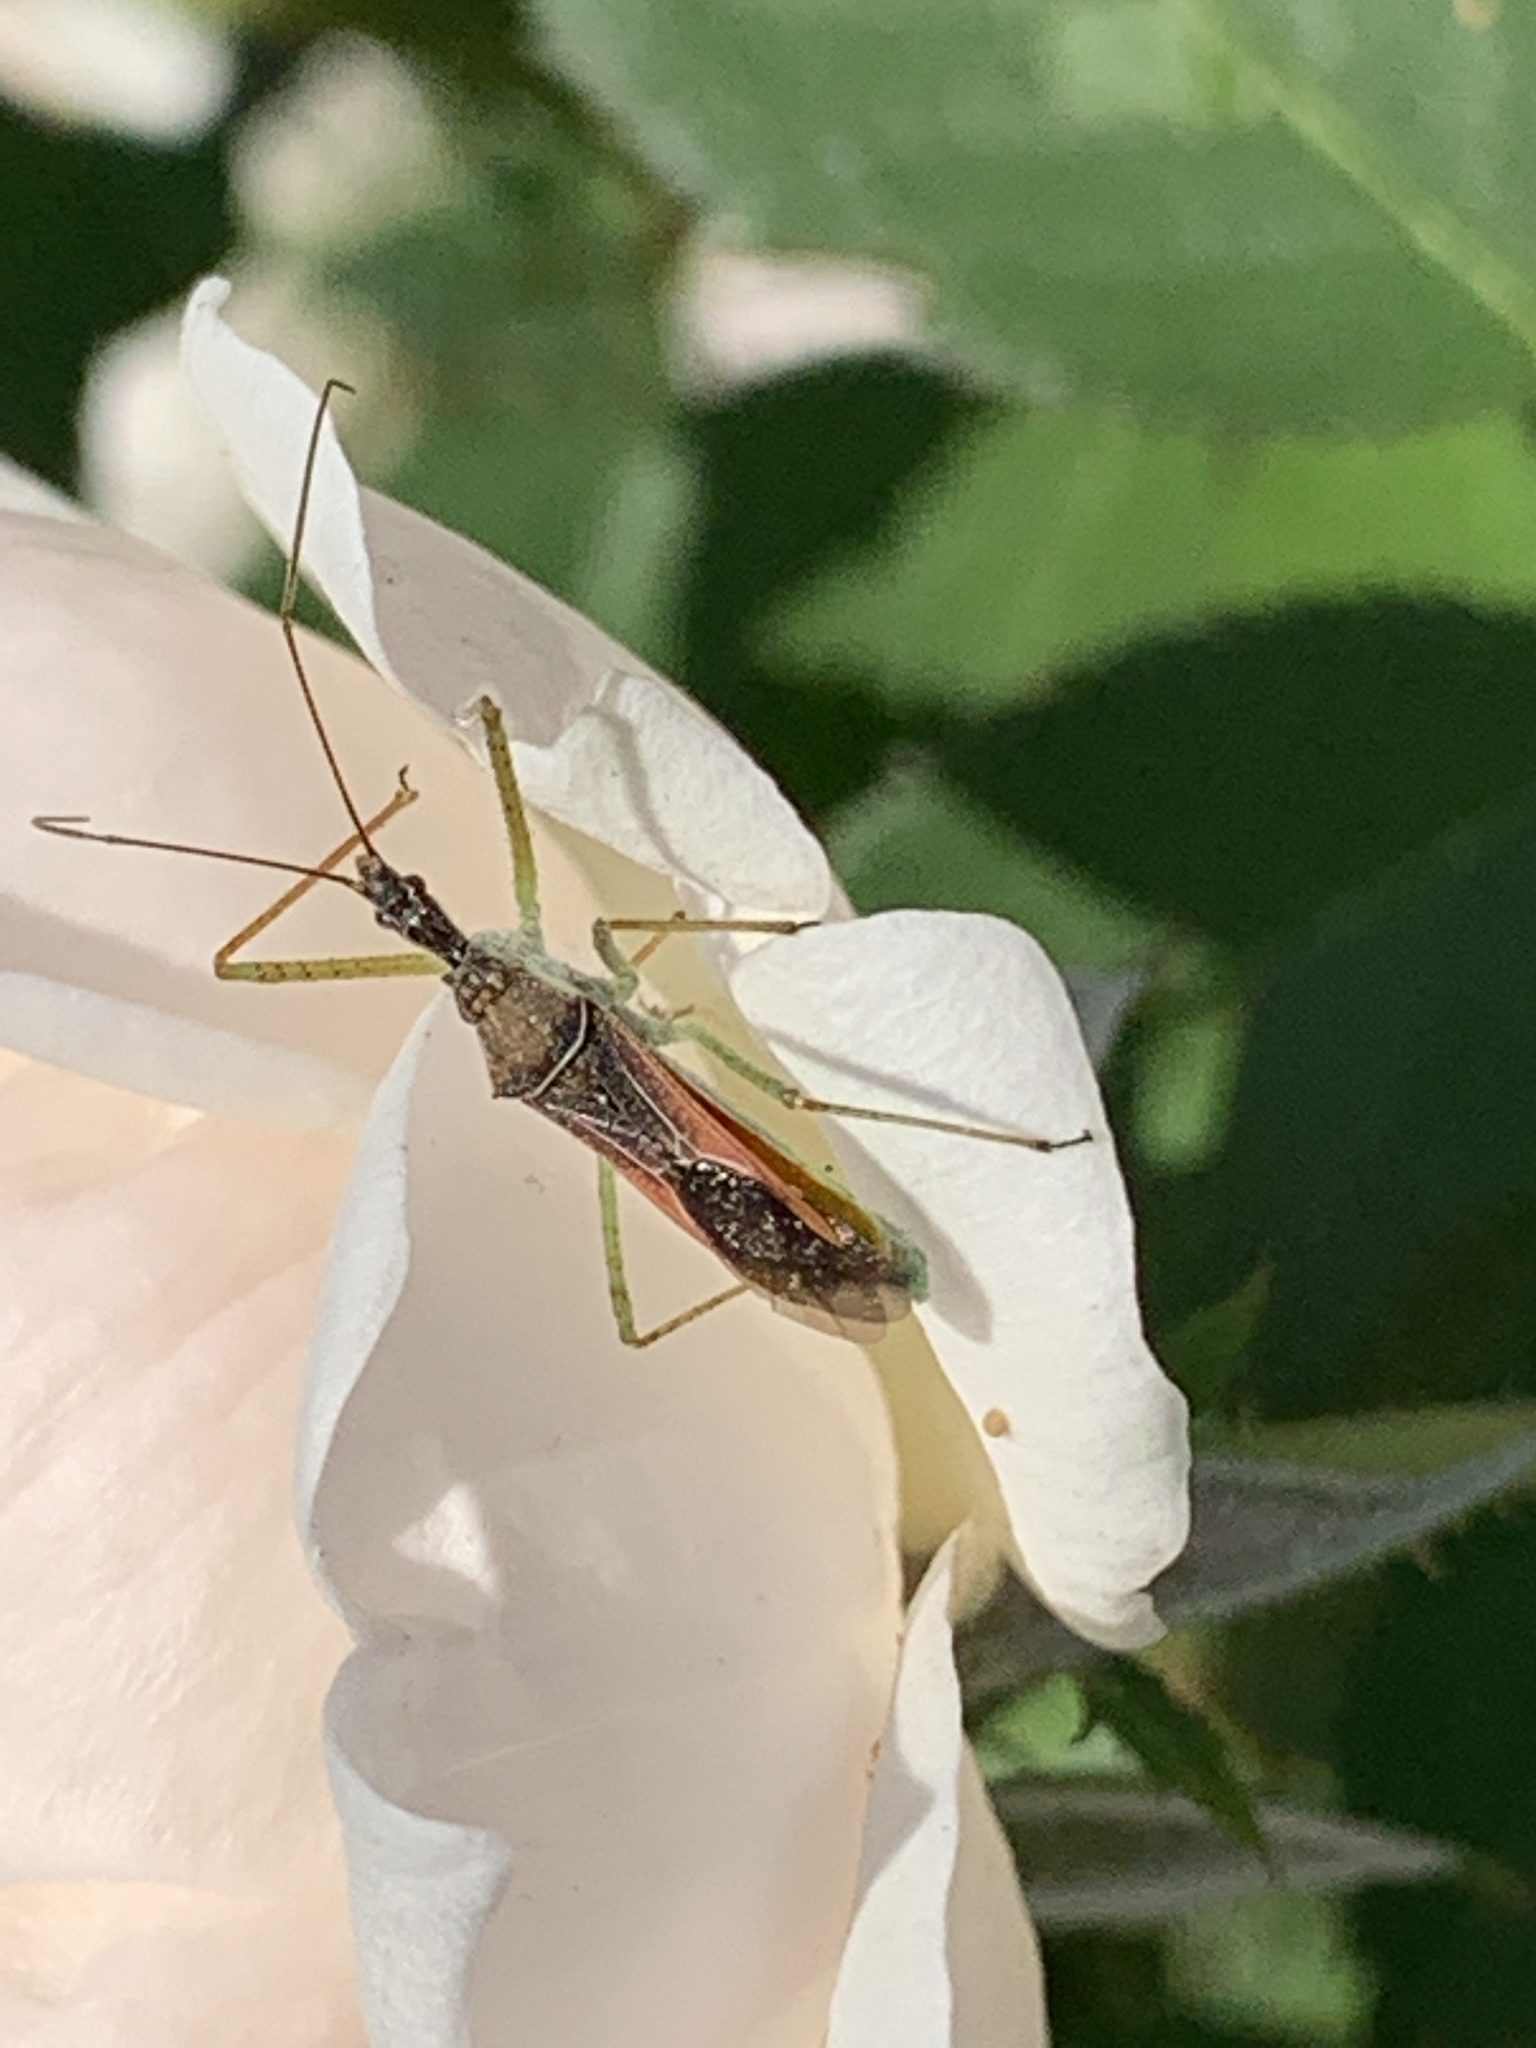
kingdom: Animalia
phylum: Arthropoda
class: Insecta
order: Hemiptera
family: Reduviidae
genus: Zelus
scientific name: Zelus renardii
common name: Assassin bug
